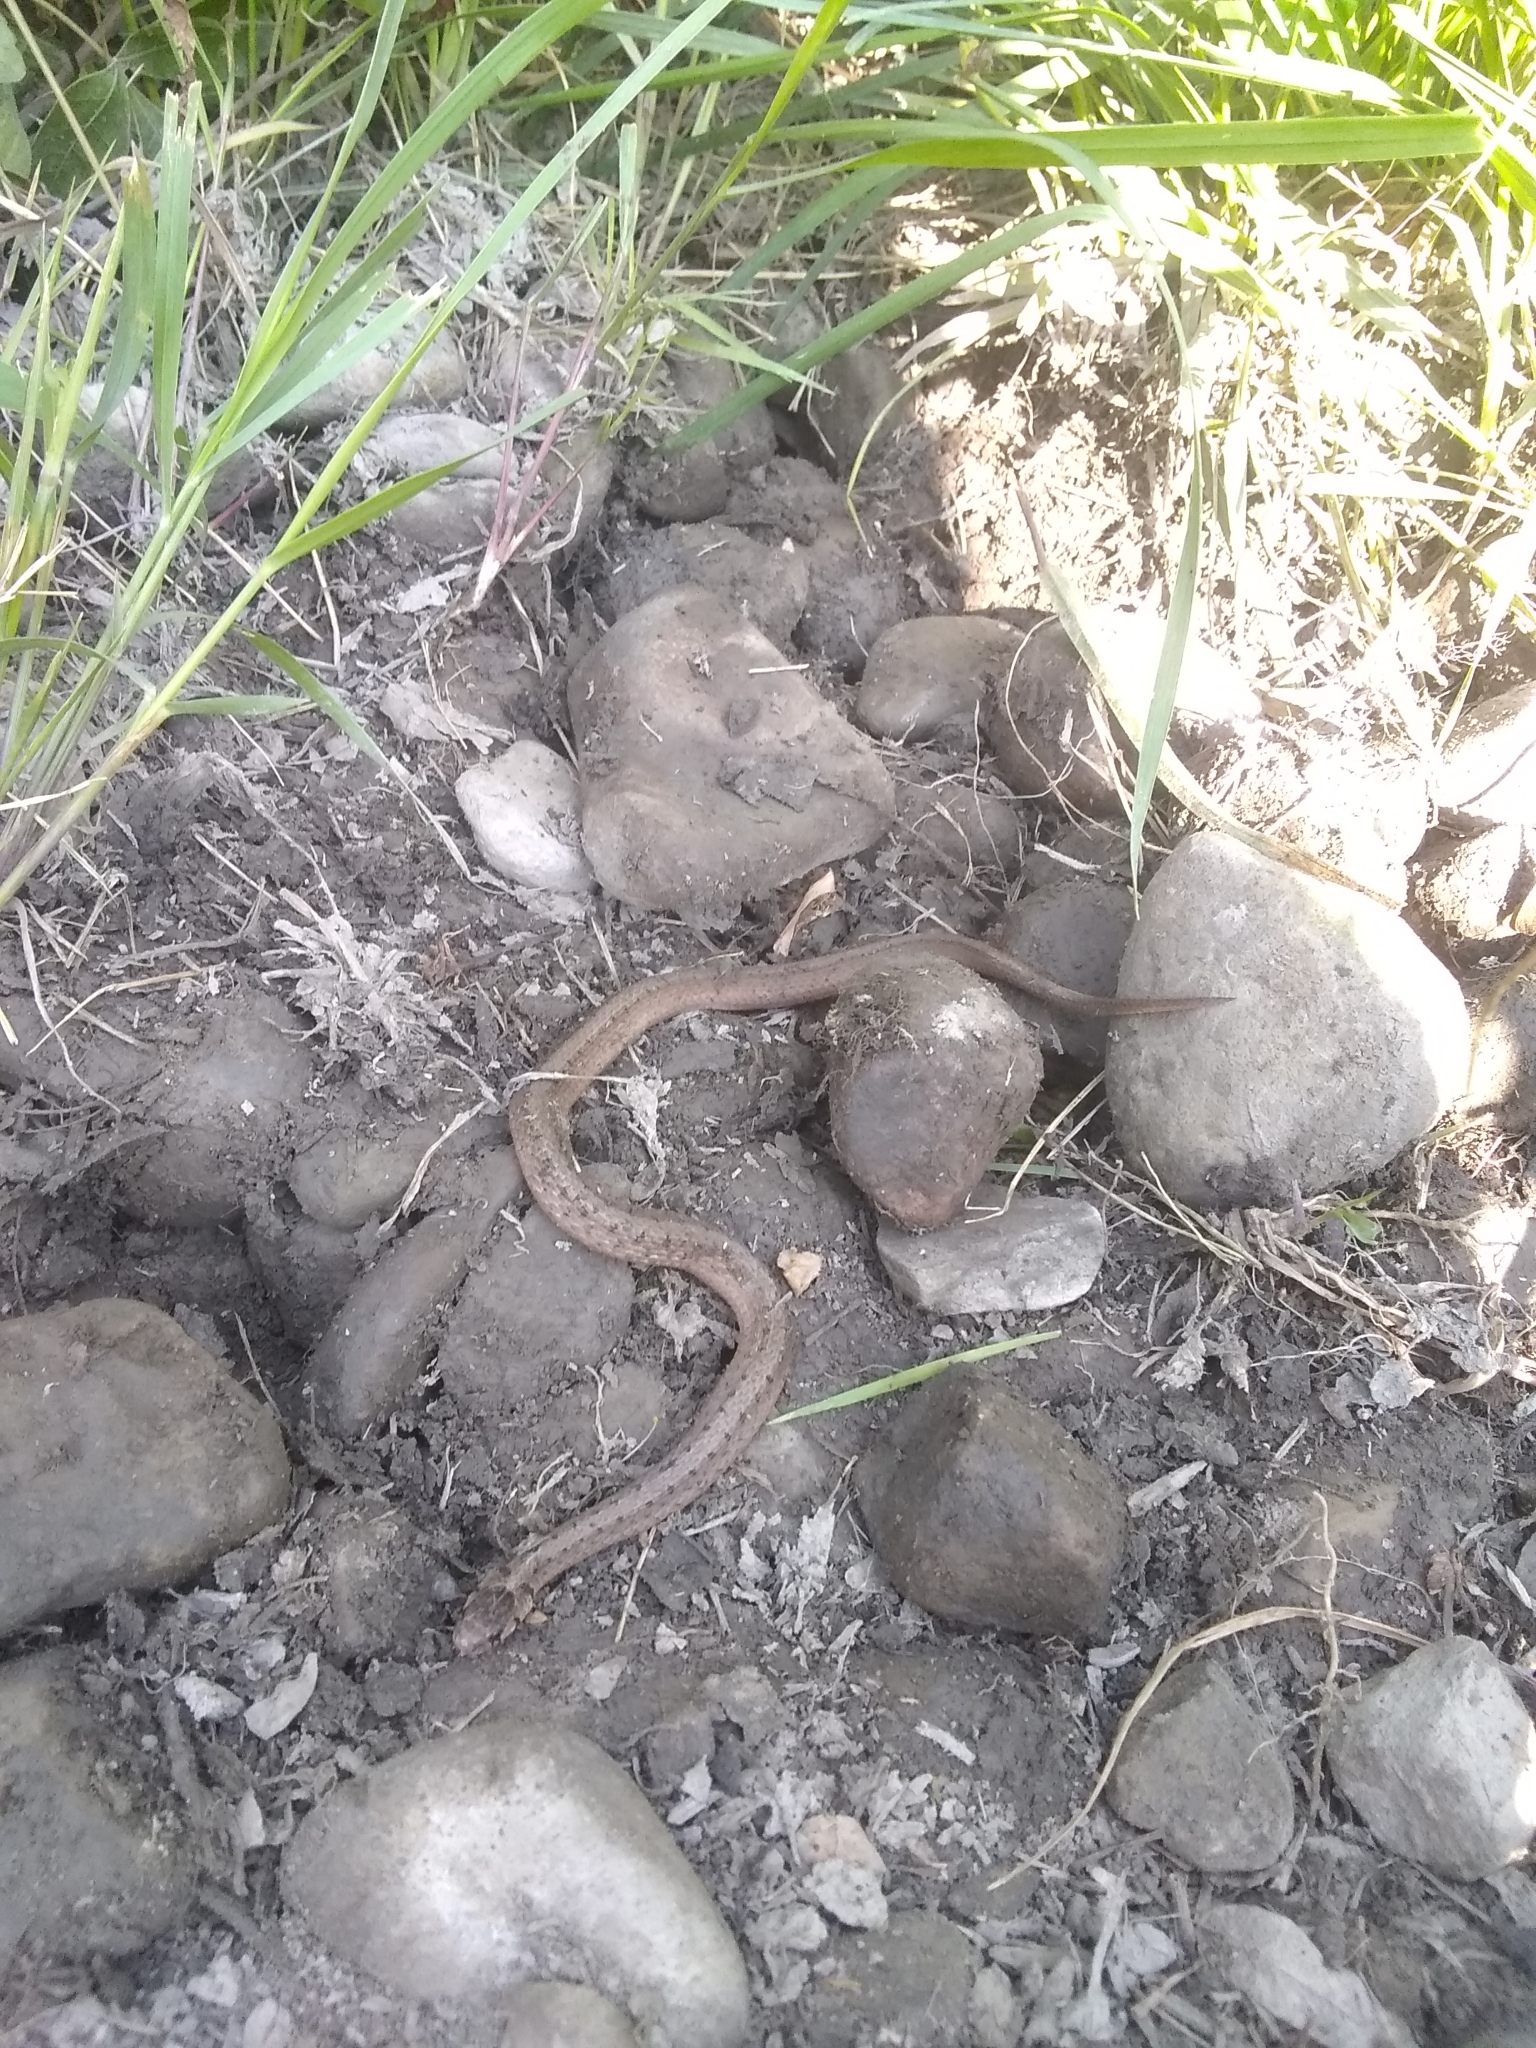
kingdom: Animalia
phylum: Chordata
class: Squamata
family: Colubridae
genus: Storeria
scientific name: Storeria dekayi
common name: (dekay’s) brown snake
